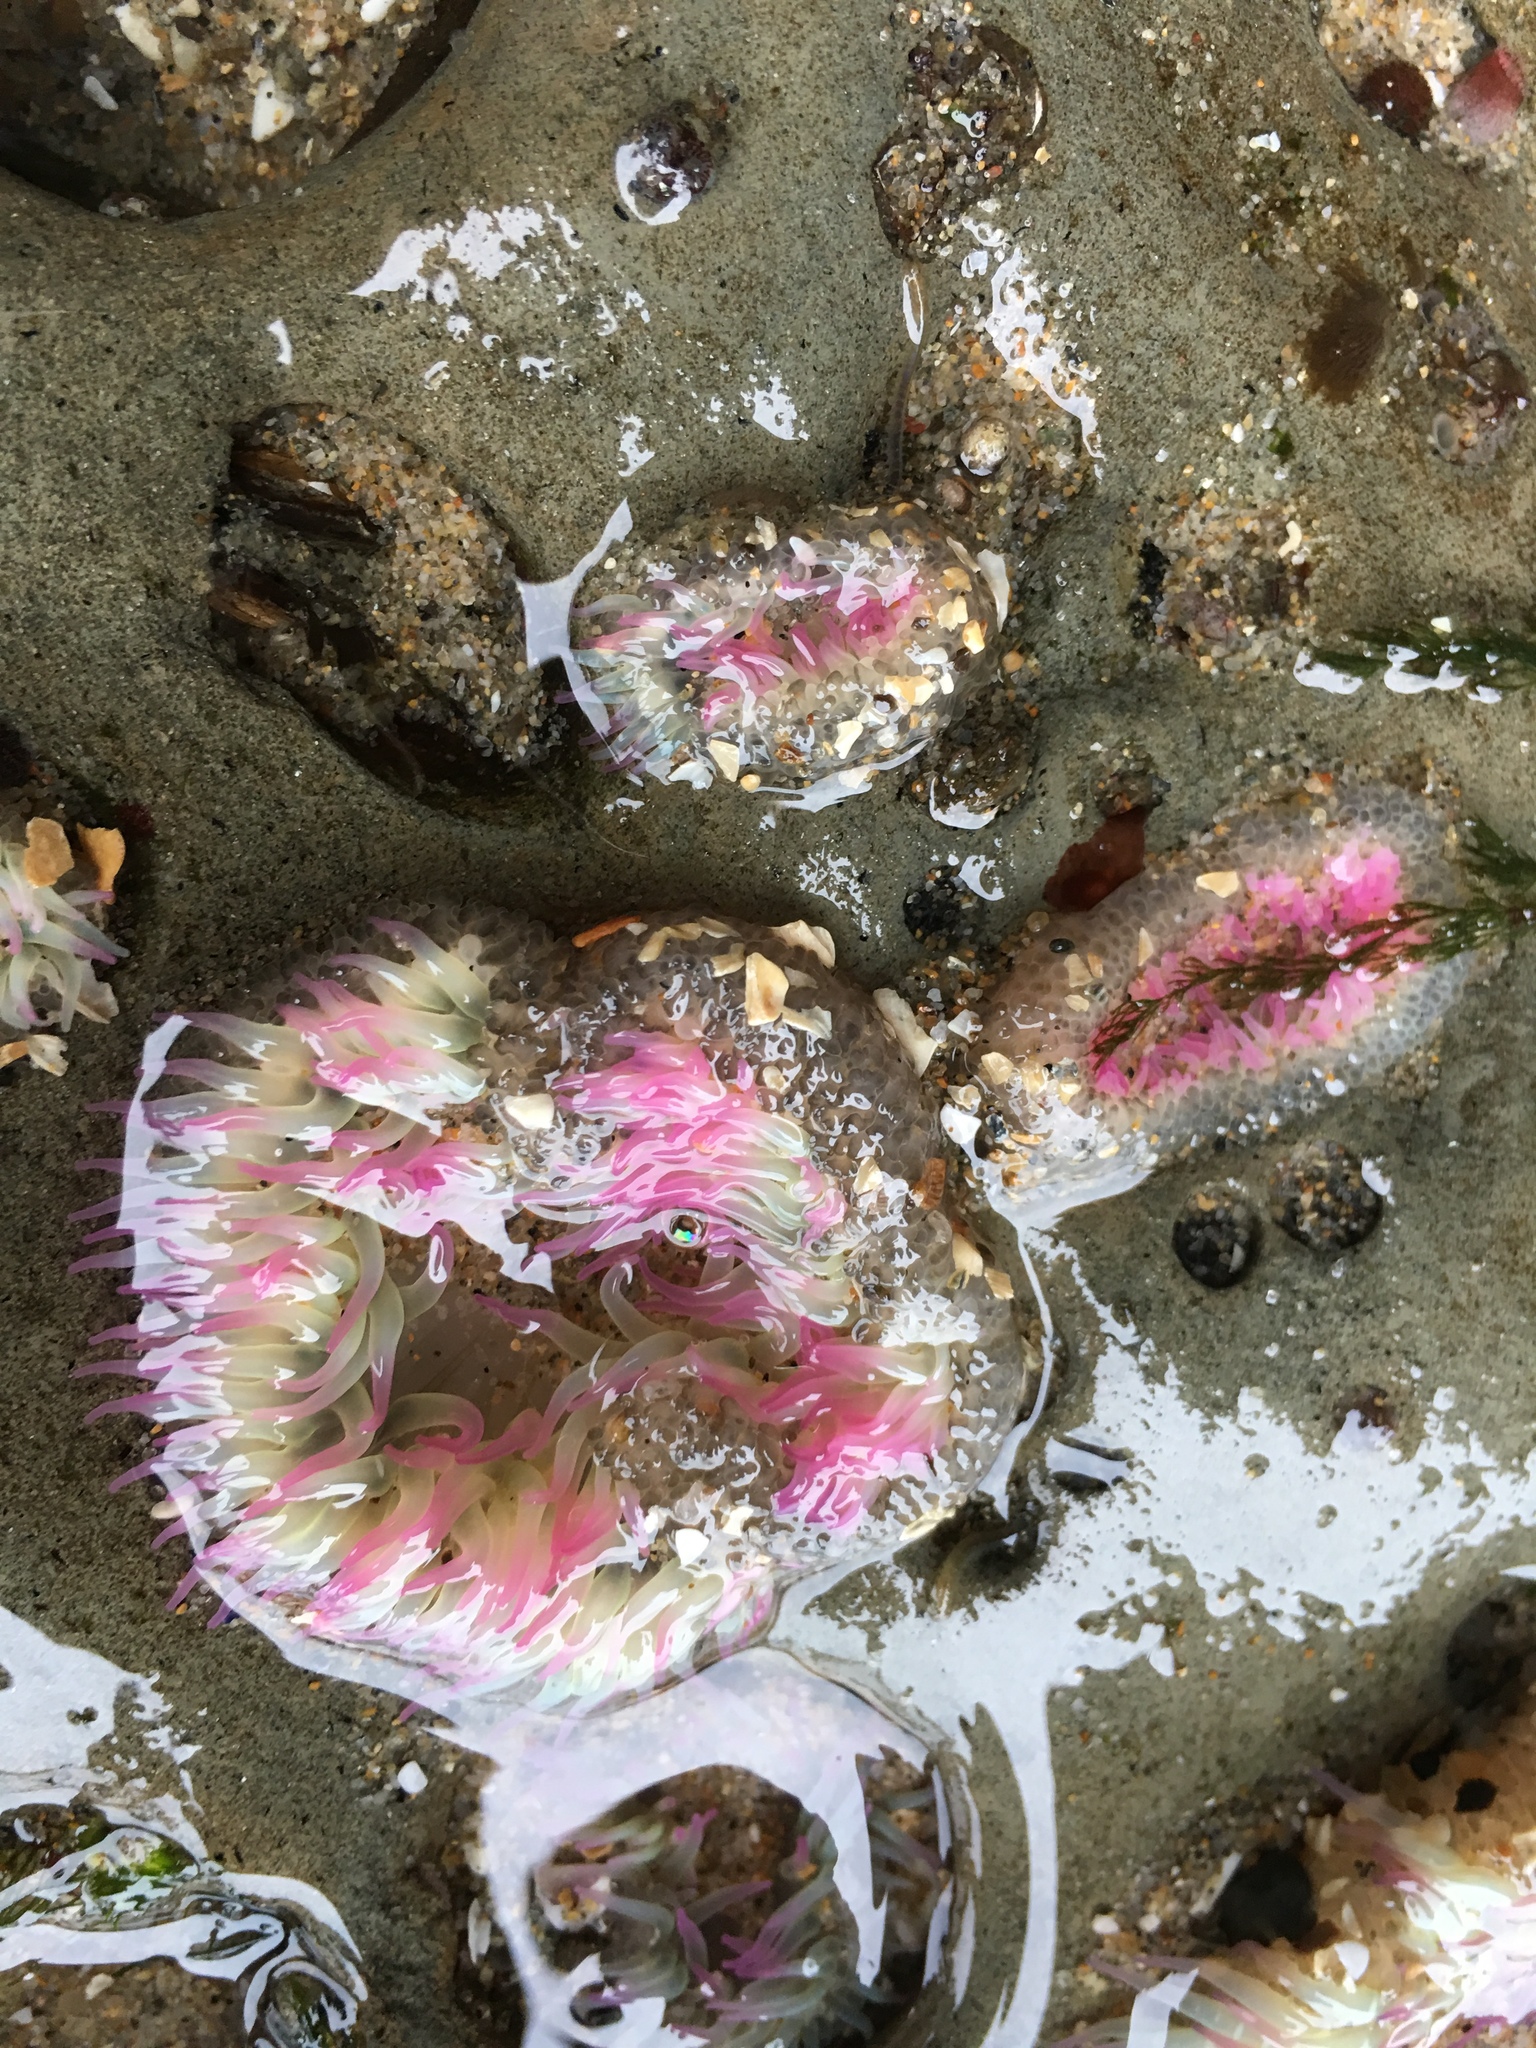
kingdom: Animalia
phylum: Cnidaria
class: Anthozoa
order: Actiniaria
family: Actiniidae
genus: Anthopleura
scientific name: Anthopleura elegantissima
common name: Clonal anemone
